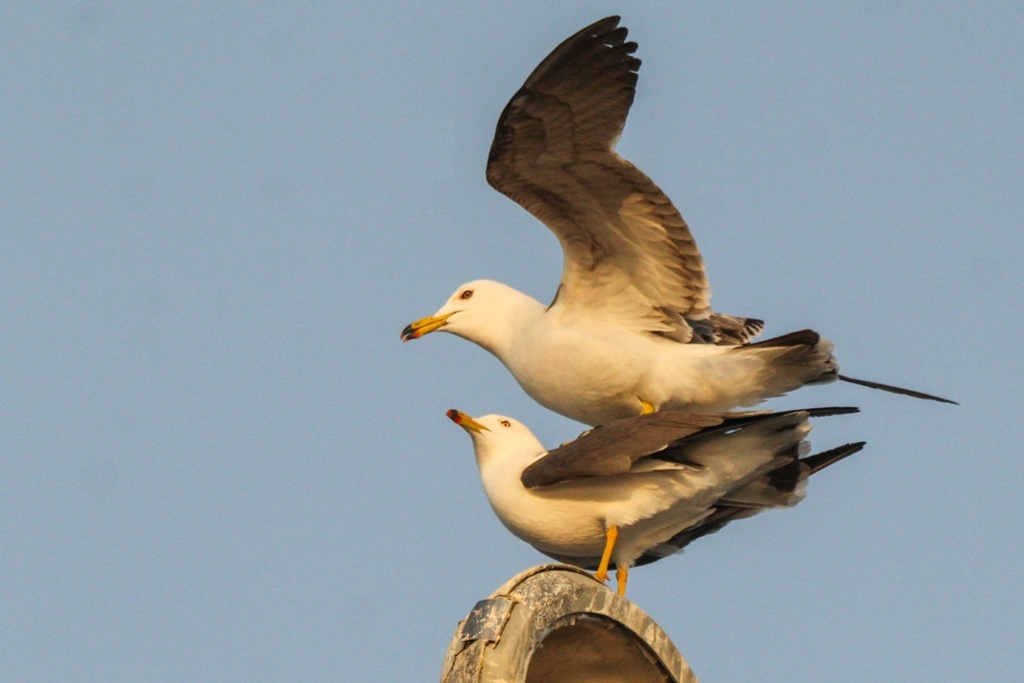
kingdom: Animalia
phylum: Chordata
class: Aves
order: Charadriiformes
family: Laridae
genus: Larus
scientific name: Larus crassirostris
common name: Black-tailed gull
